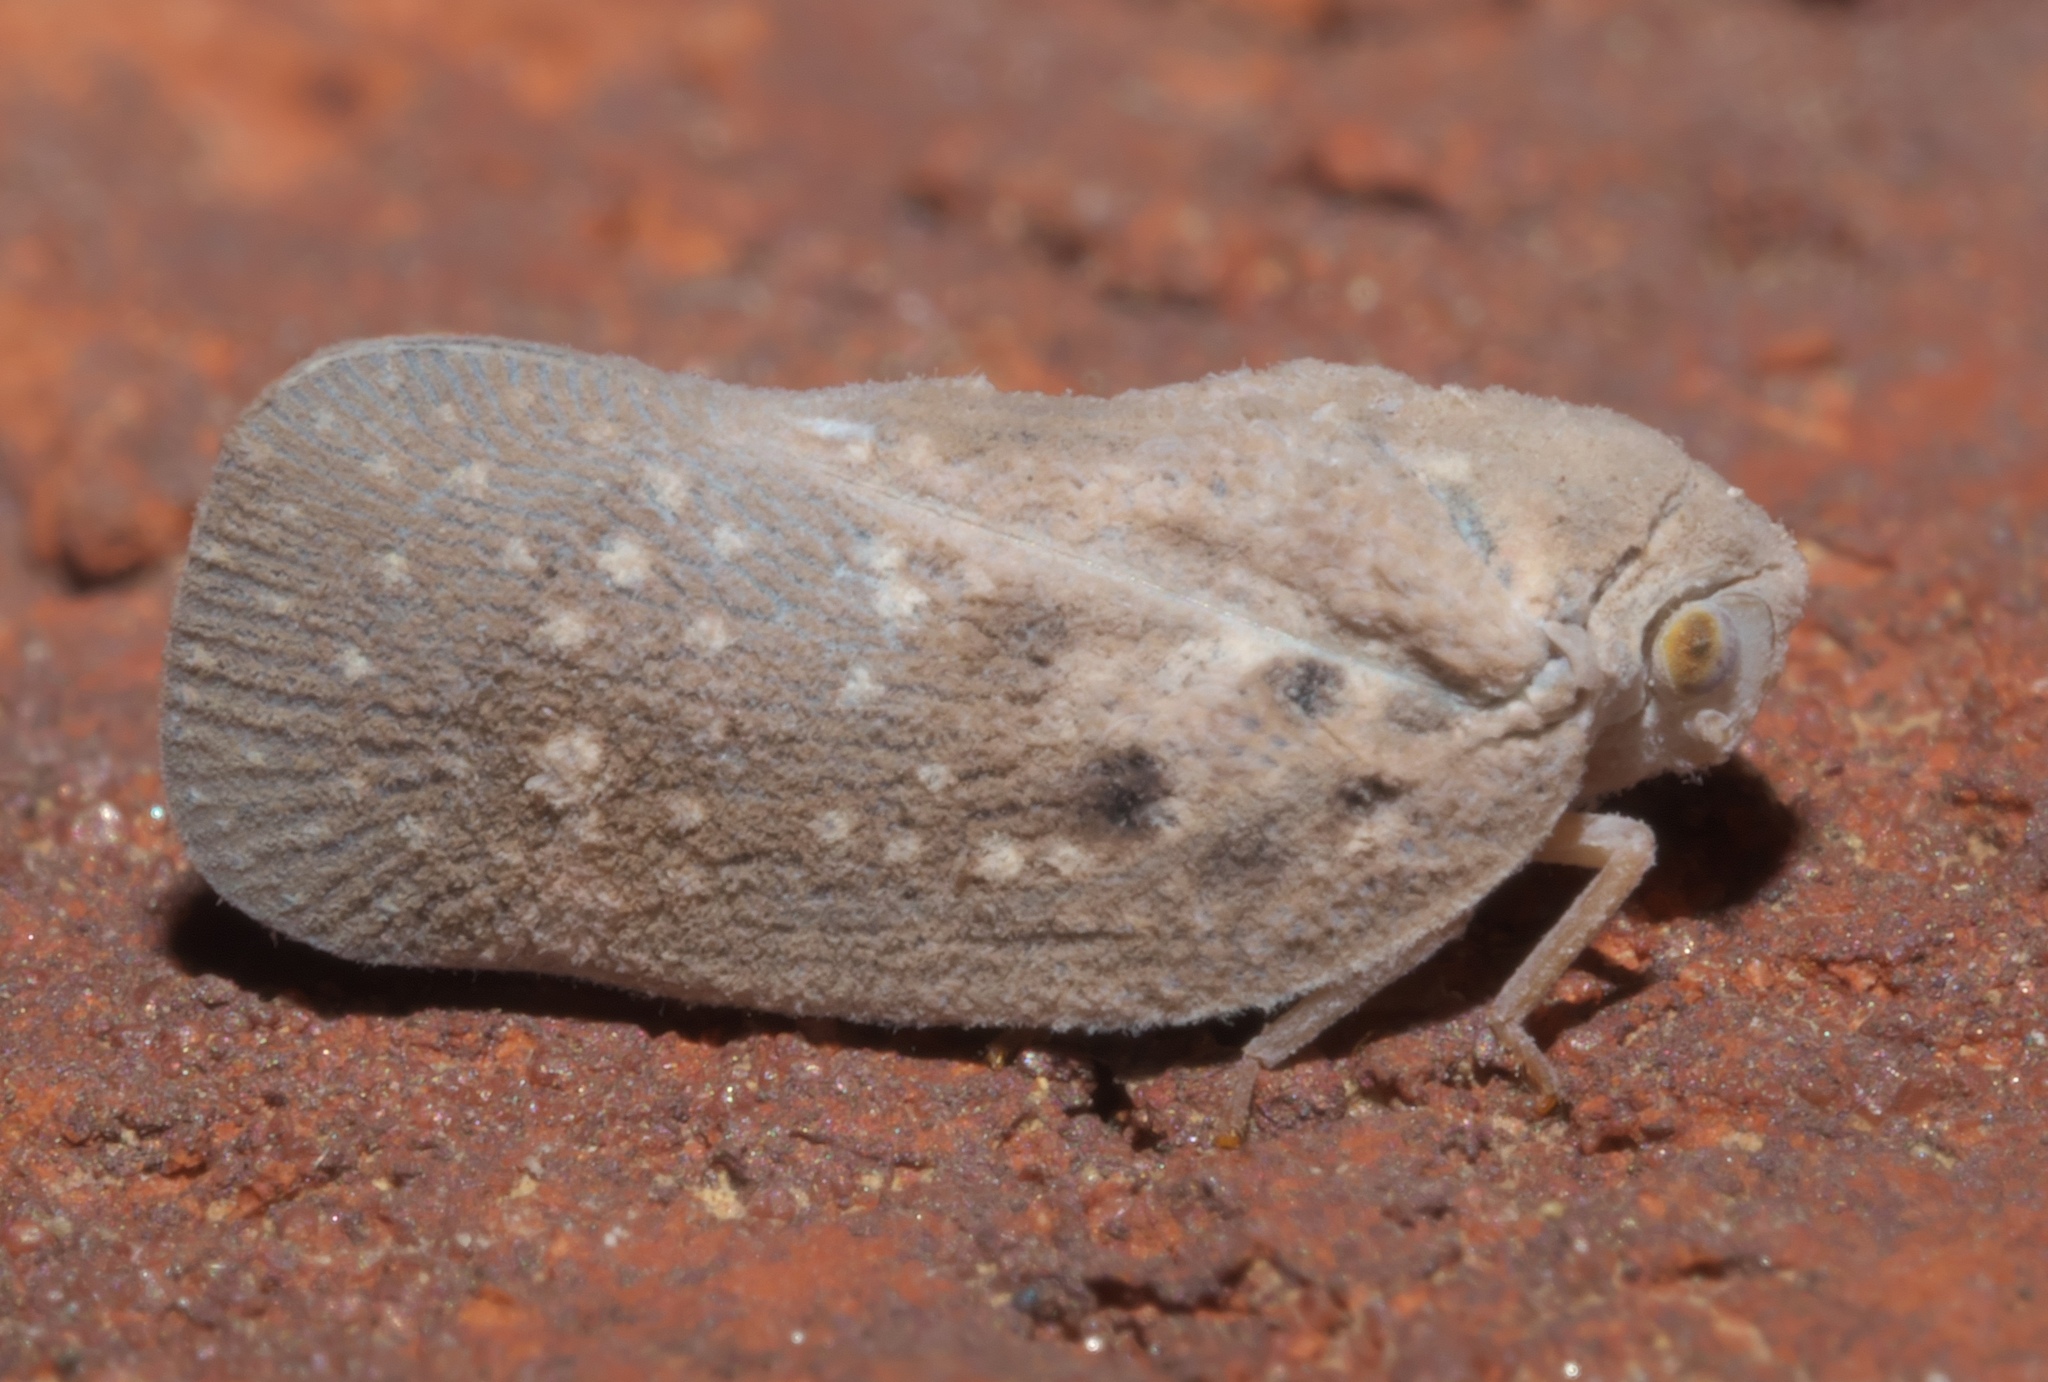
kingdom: Animalia
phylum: Arthropoda
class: Insecta
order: Hemiptera
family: Flatidae
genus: Metcalfa
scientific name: Metcalfa pruinosa
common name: Citrus flatid planthopper
